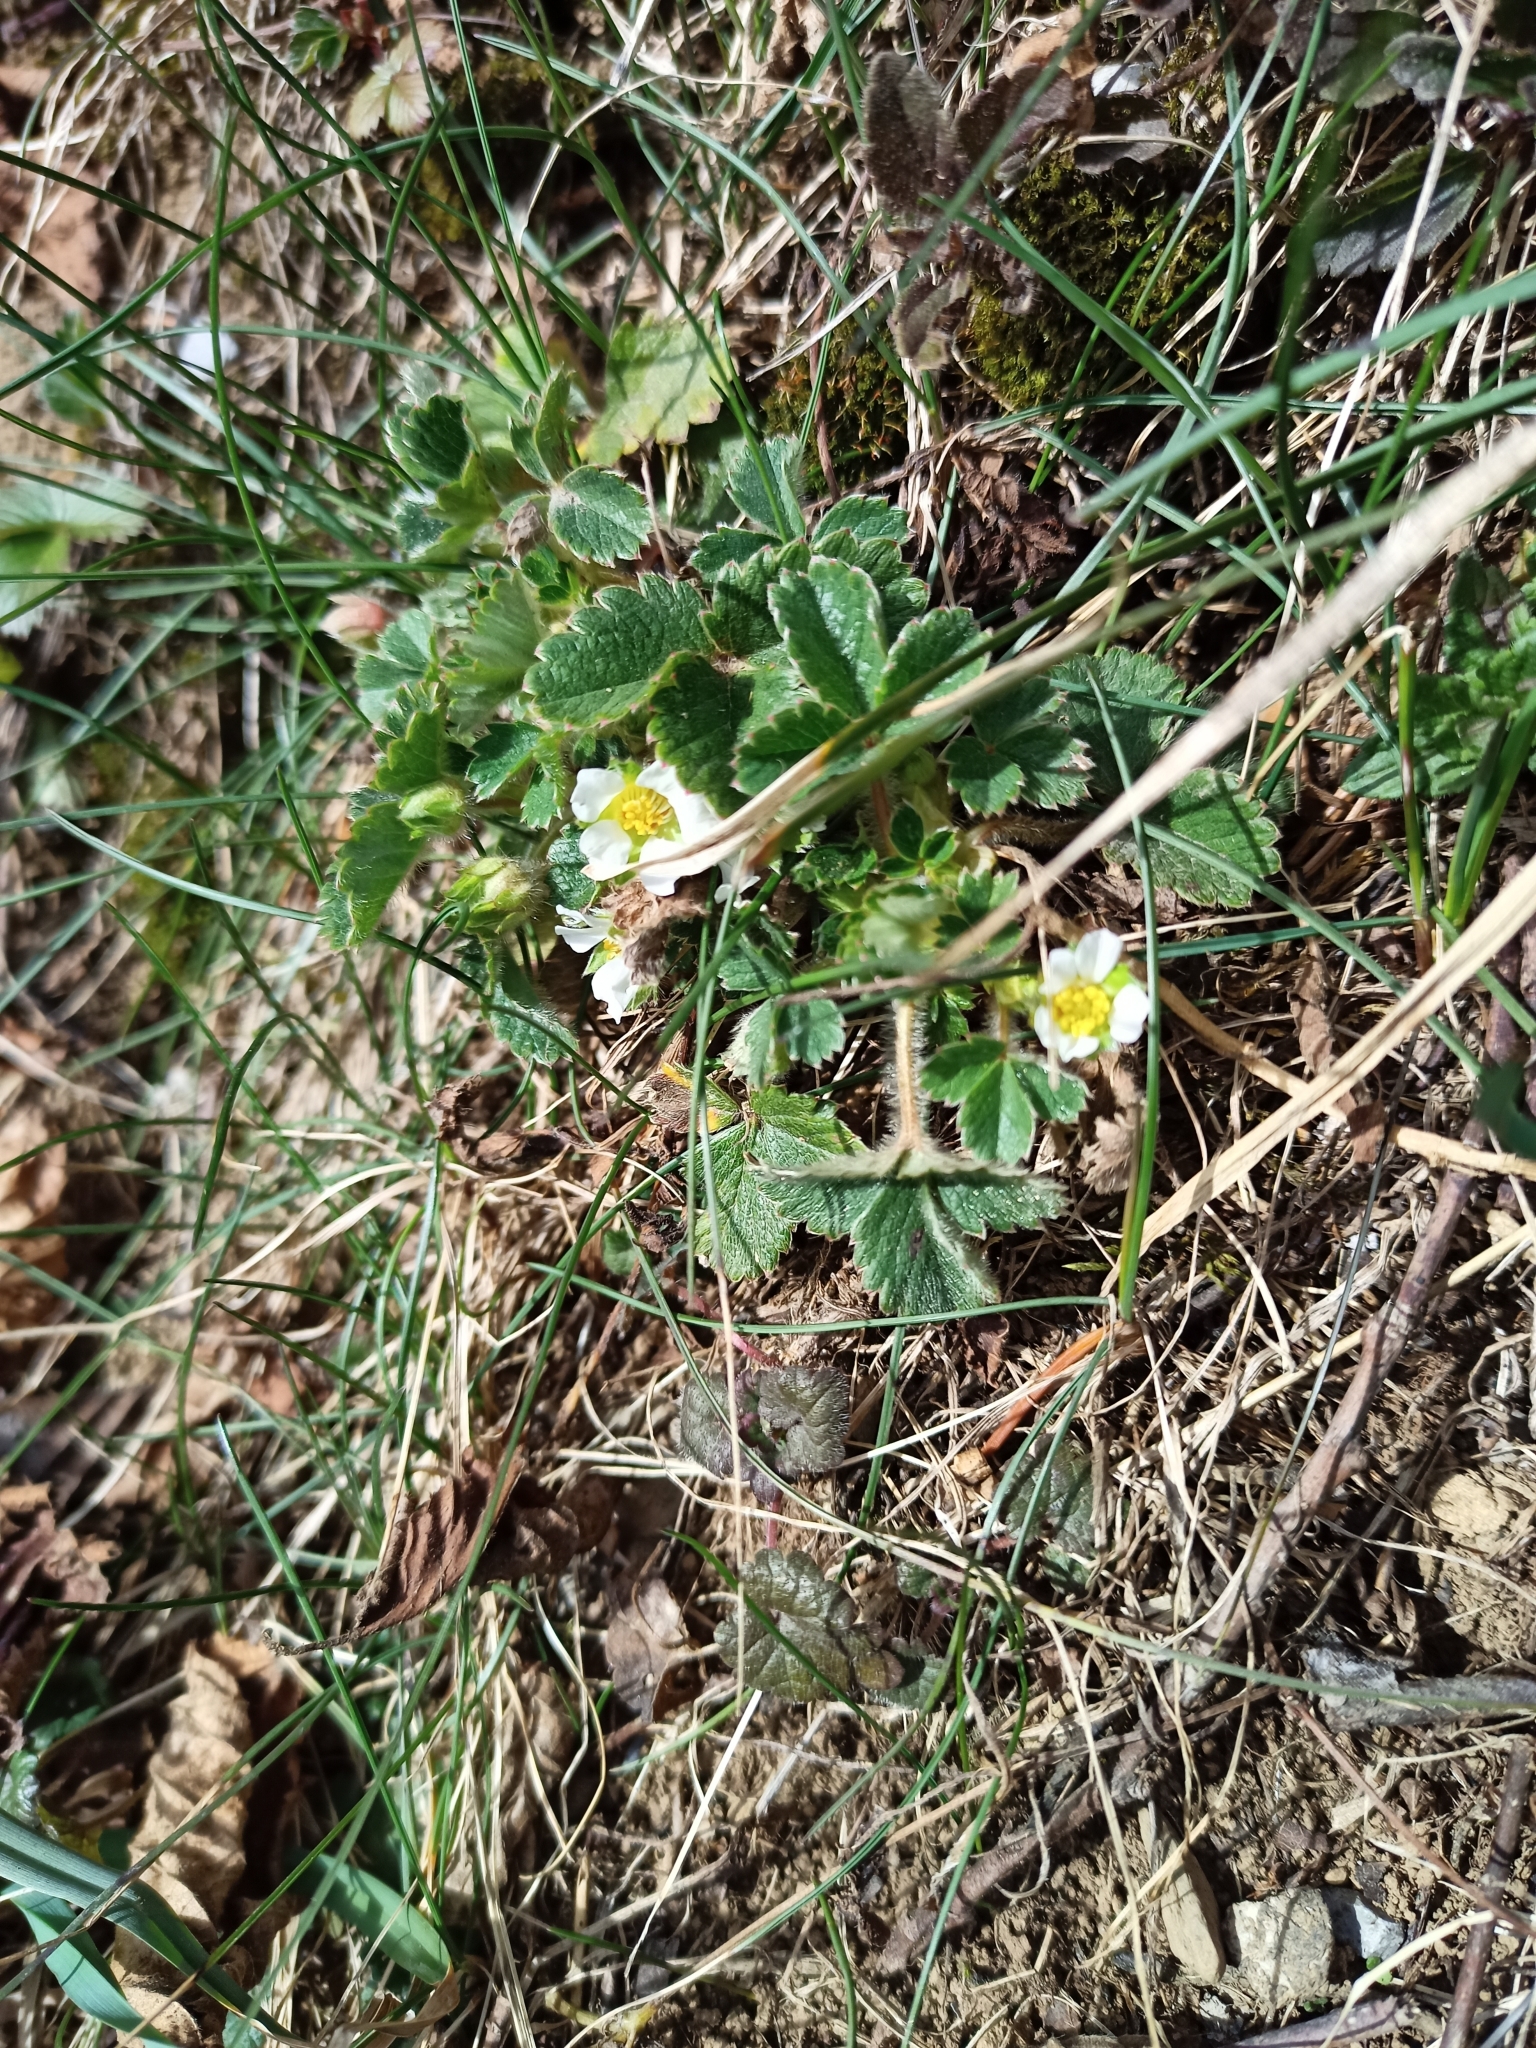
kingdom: Plantae
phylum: Tracheophyta
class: Magnoliopsida
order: Rosales
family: Rosaceae
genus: Potentilla
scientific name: Potentilla sterilis
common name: Barren strawberry
